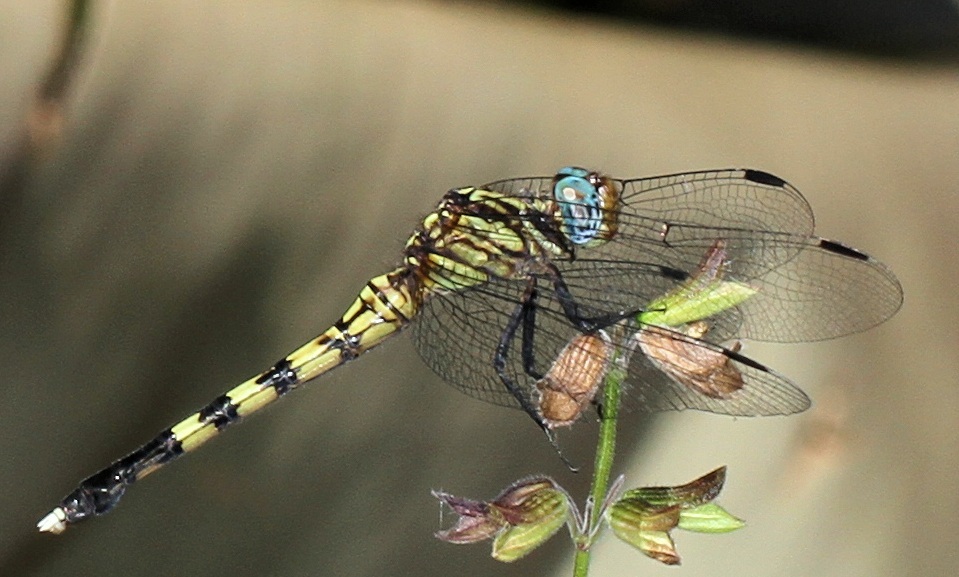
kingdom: Animalia
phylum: Arthropoda
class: Insecta
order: Odonata
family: Libellulidae
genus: Orthetrum
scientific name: Orthetrum julia
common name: Julia skimmer
